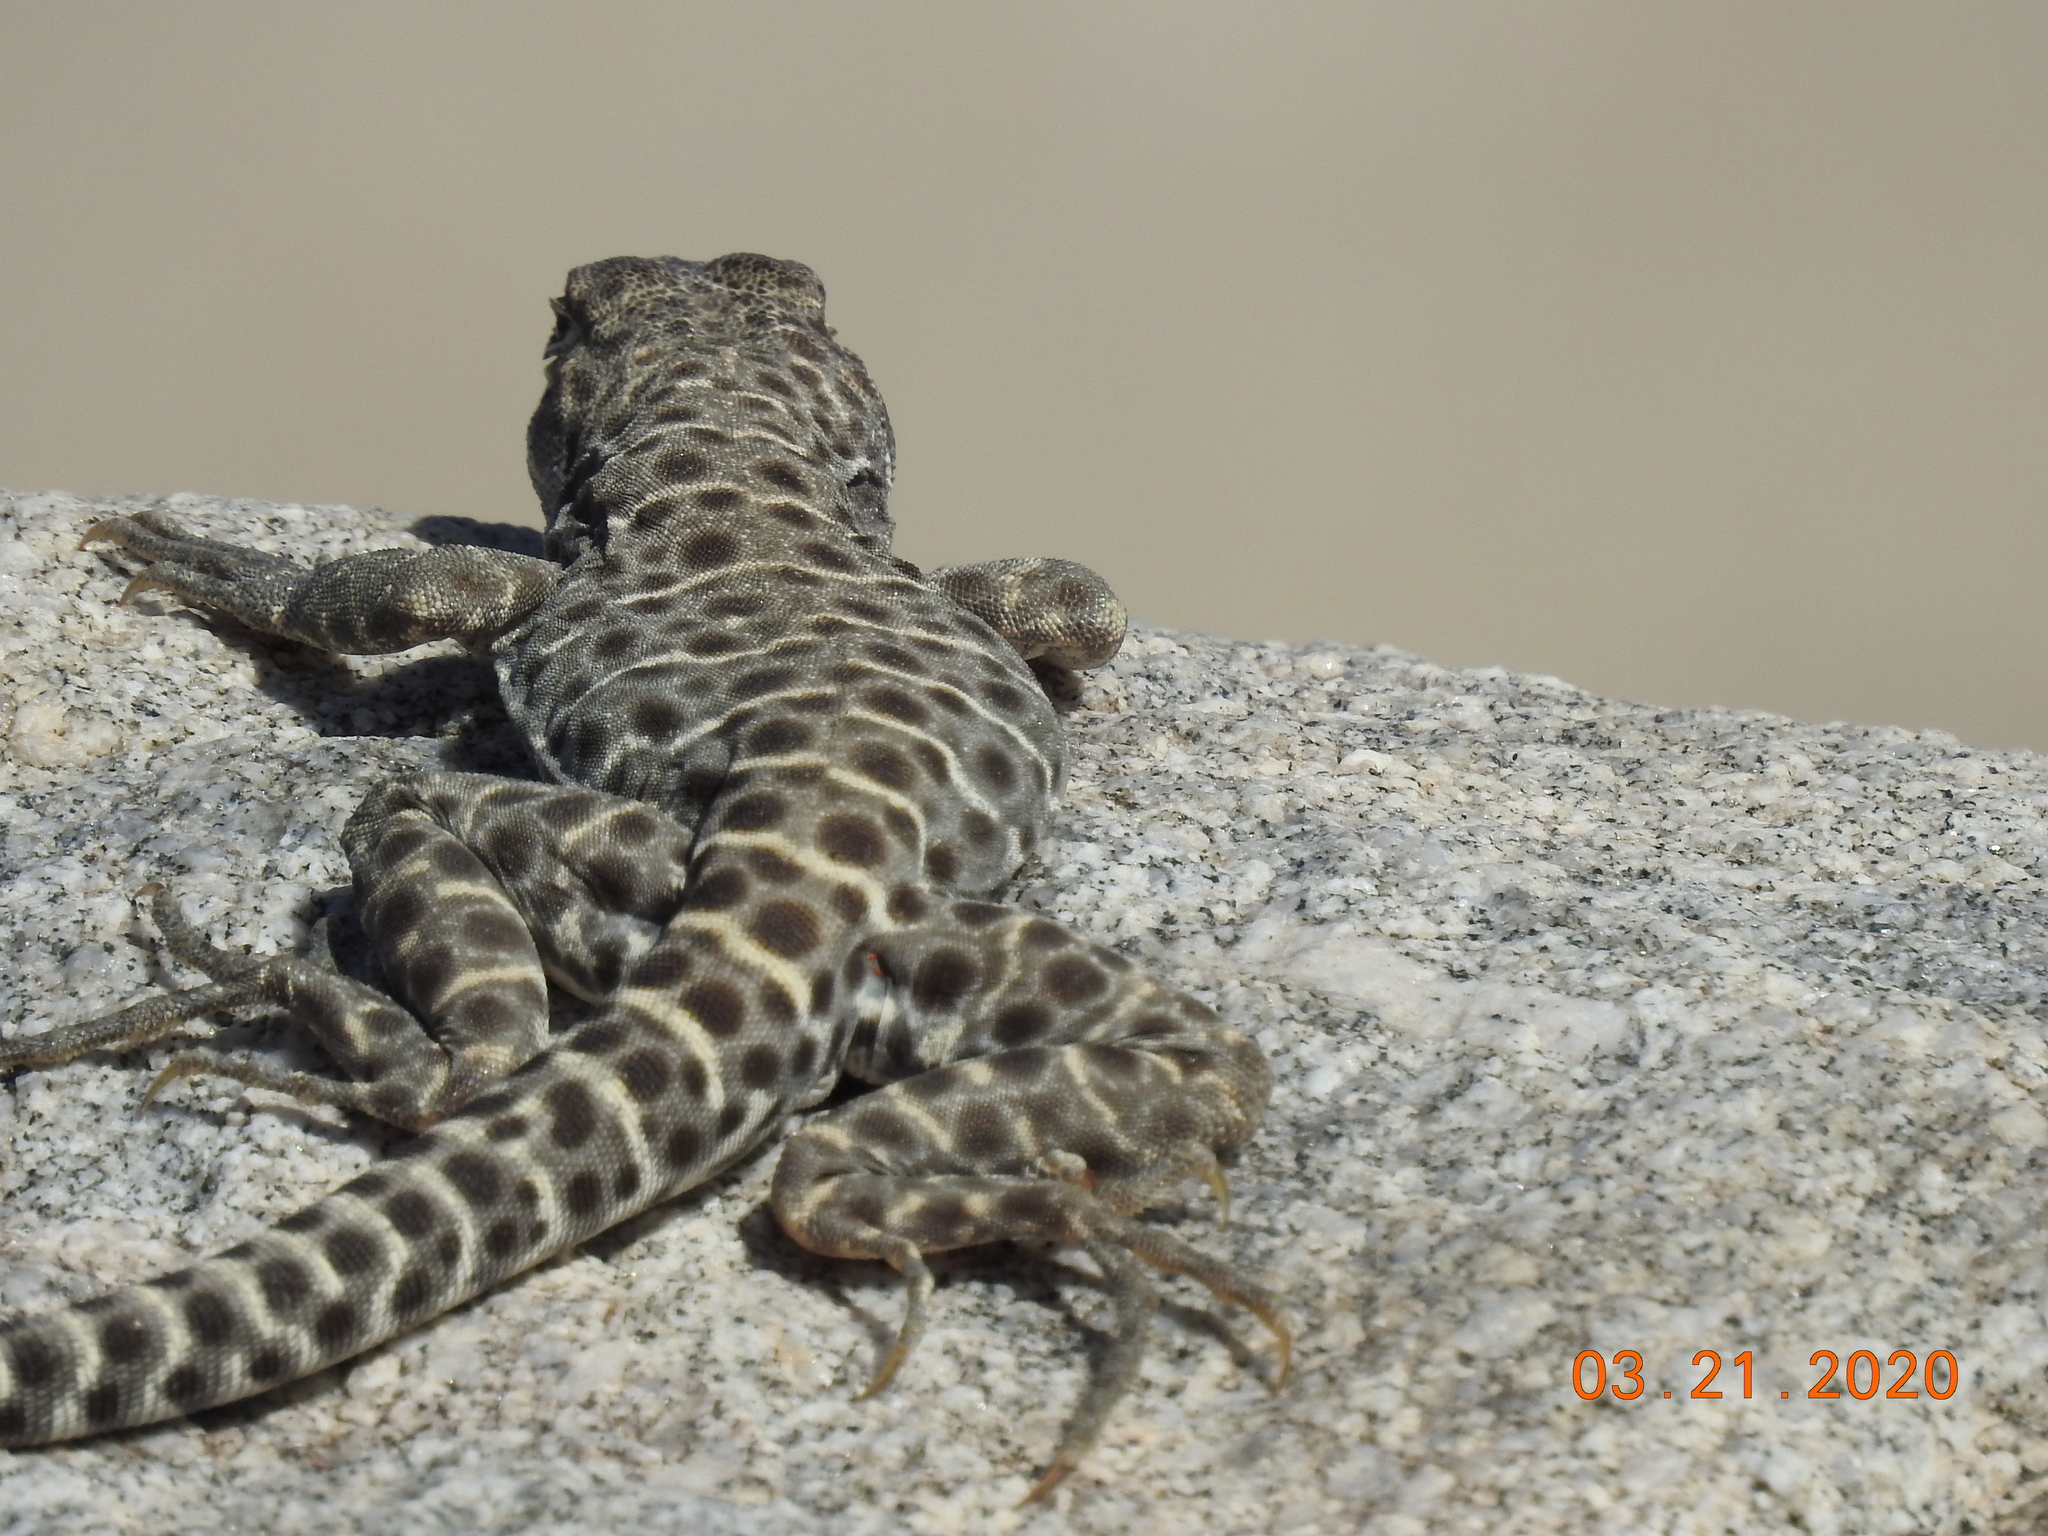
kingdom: Animalia
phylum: Chordata
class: Squamata
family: Crotaphytidae
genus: Gambelia
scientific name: Gambelia wislizenii
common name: Longnose leopard lizard
